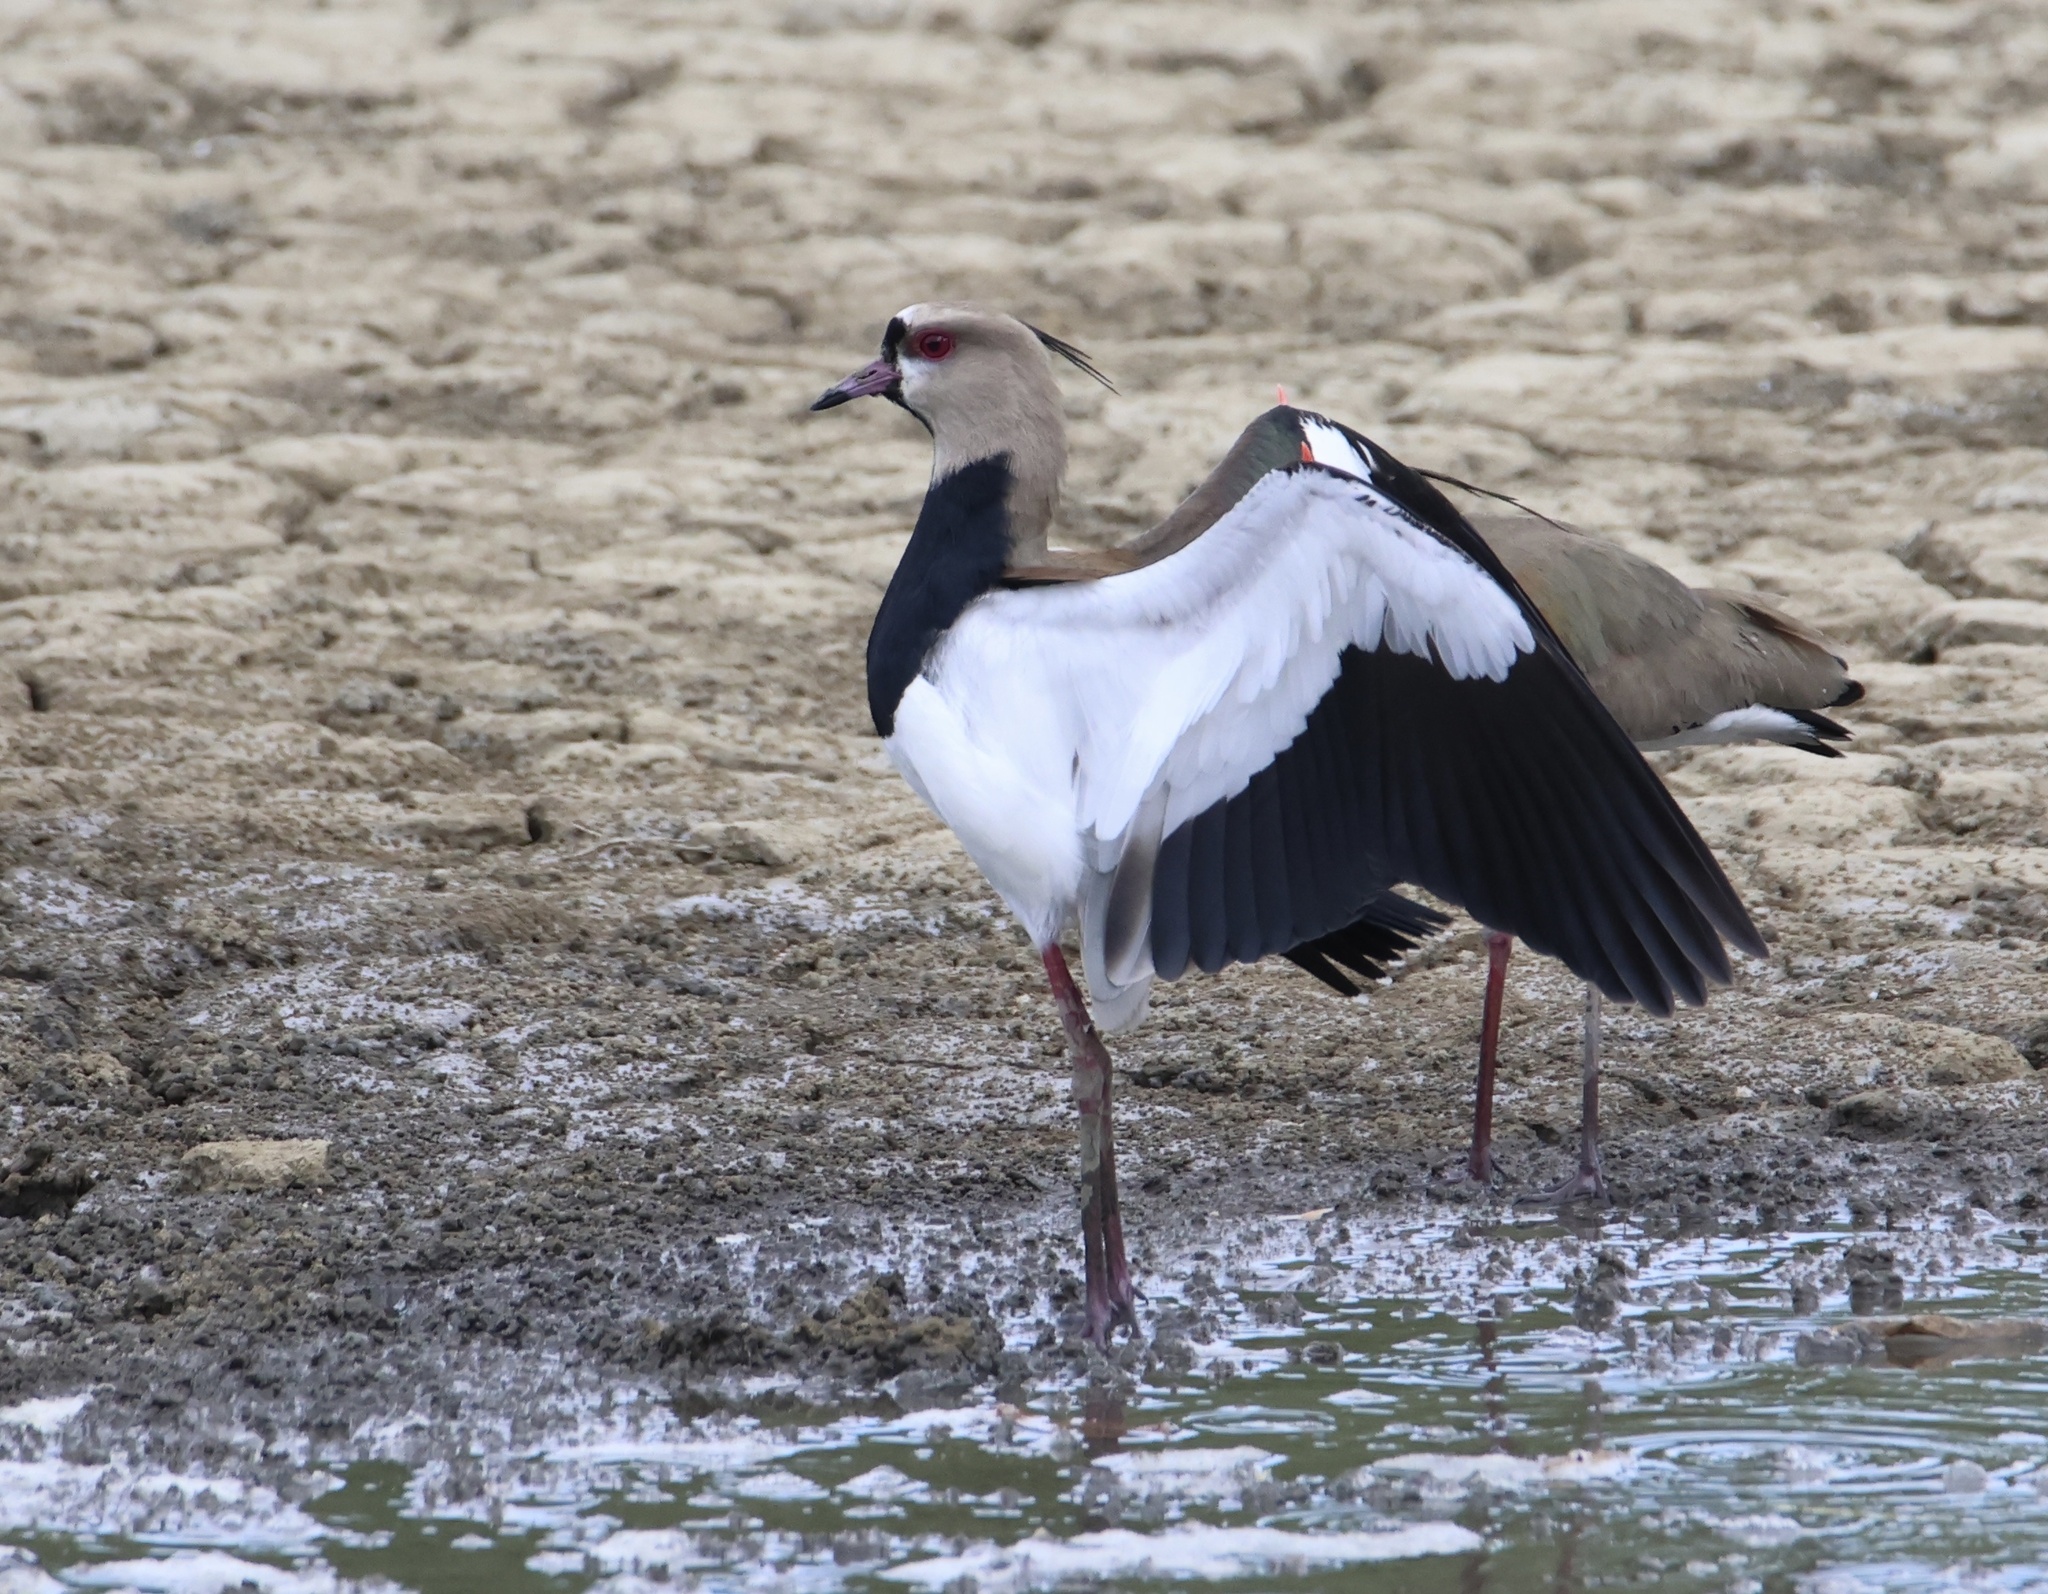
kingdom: Animalia
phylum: Chordata
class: Aves
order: Charadriiformes
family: Charadriidae
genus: Vanellus
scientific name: Vanellus chilensis
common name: Southern lapwing
